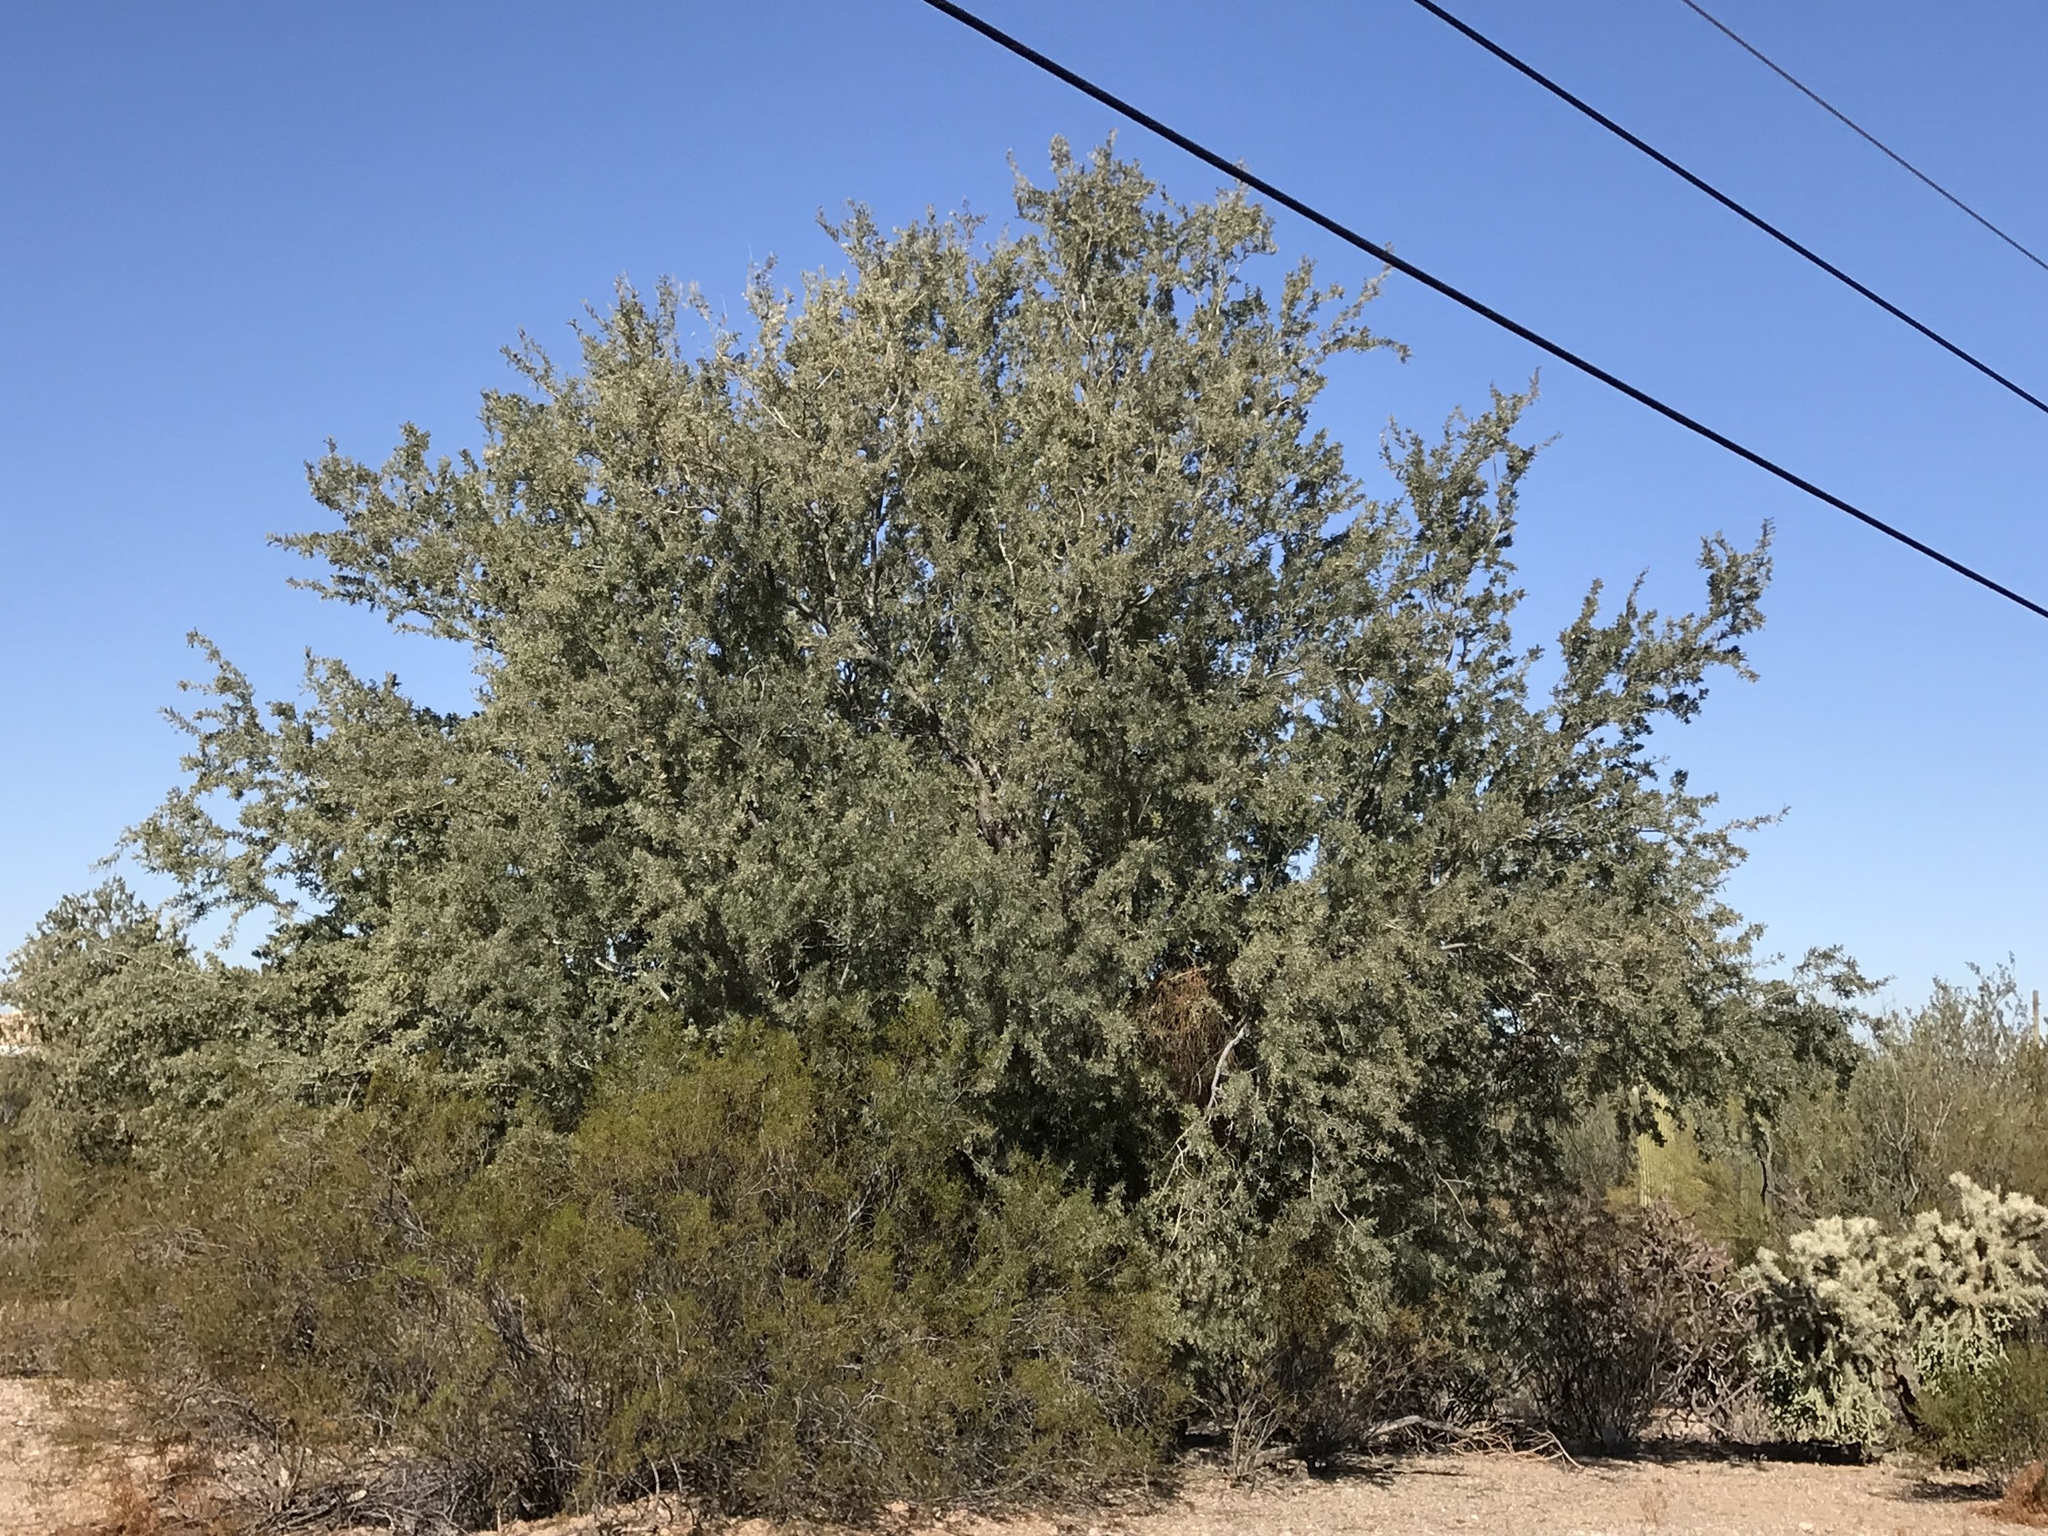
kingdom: Plantae
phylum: Tracheophyta
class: Magnoliopsida
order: Fabales
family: Fabaceae
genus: Olneya
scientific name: Olneya tesota
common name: Desert ironwood
